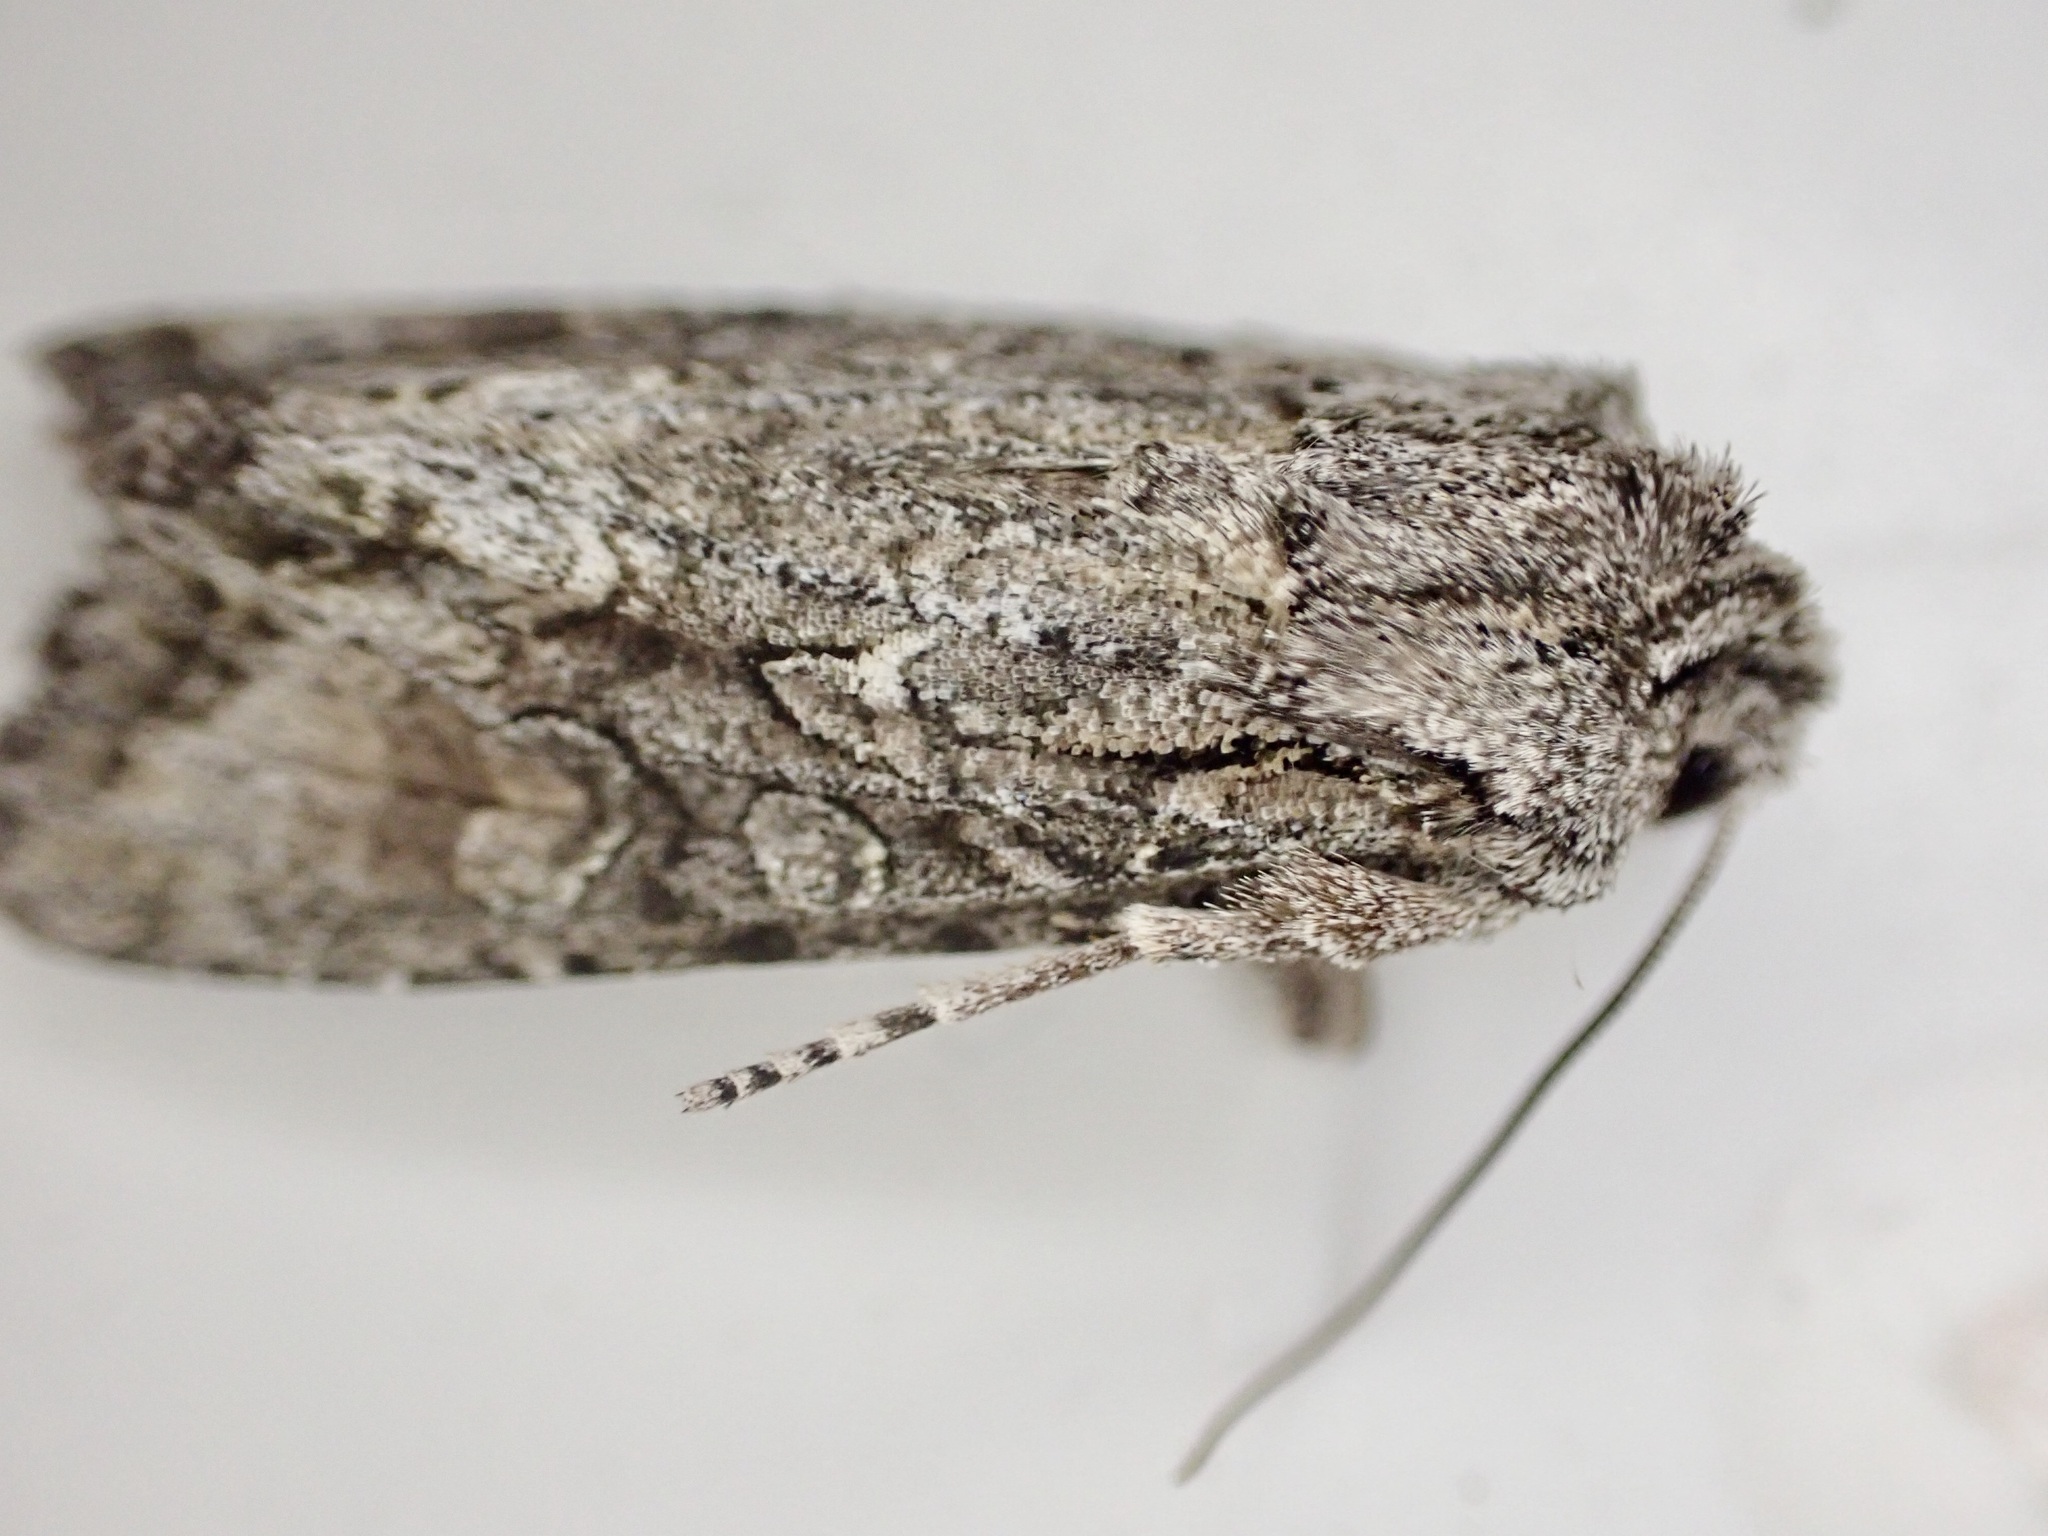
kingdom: Animalia
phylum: Arthropoda
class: Insecta
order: Lepidoptera
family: Noctuidae
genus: Ichneutica
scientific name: Ichneutica mutans
